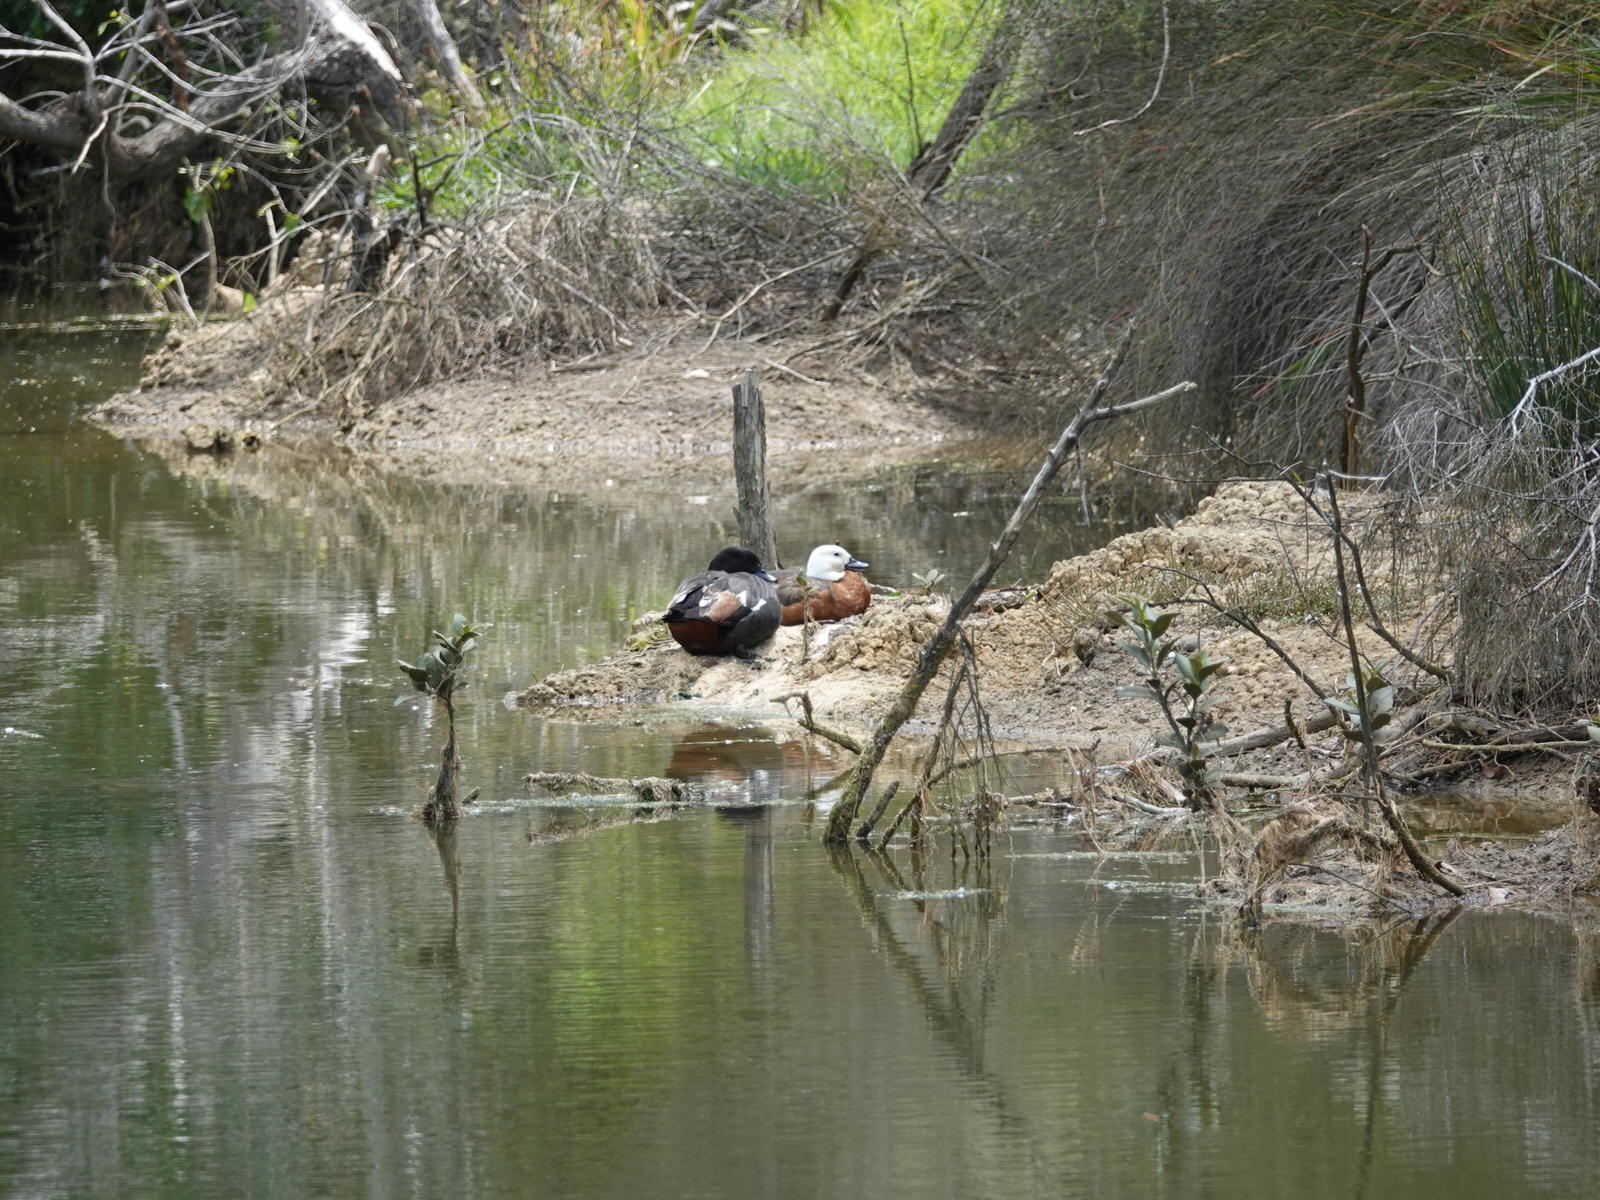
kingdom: Animalia
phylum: Chordata
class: Aves
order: Anseriformes
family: Anatidae
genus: Tadorna
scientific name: Tadorna variegata
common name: Paradise shelduck
